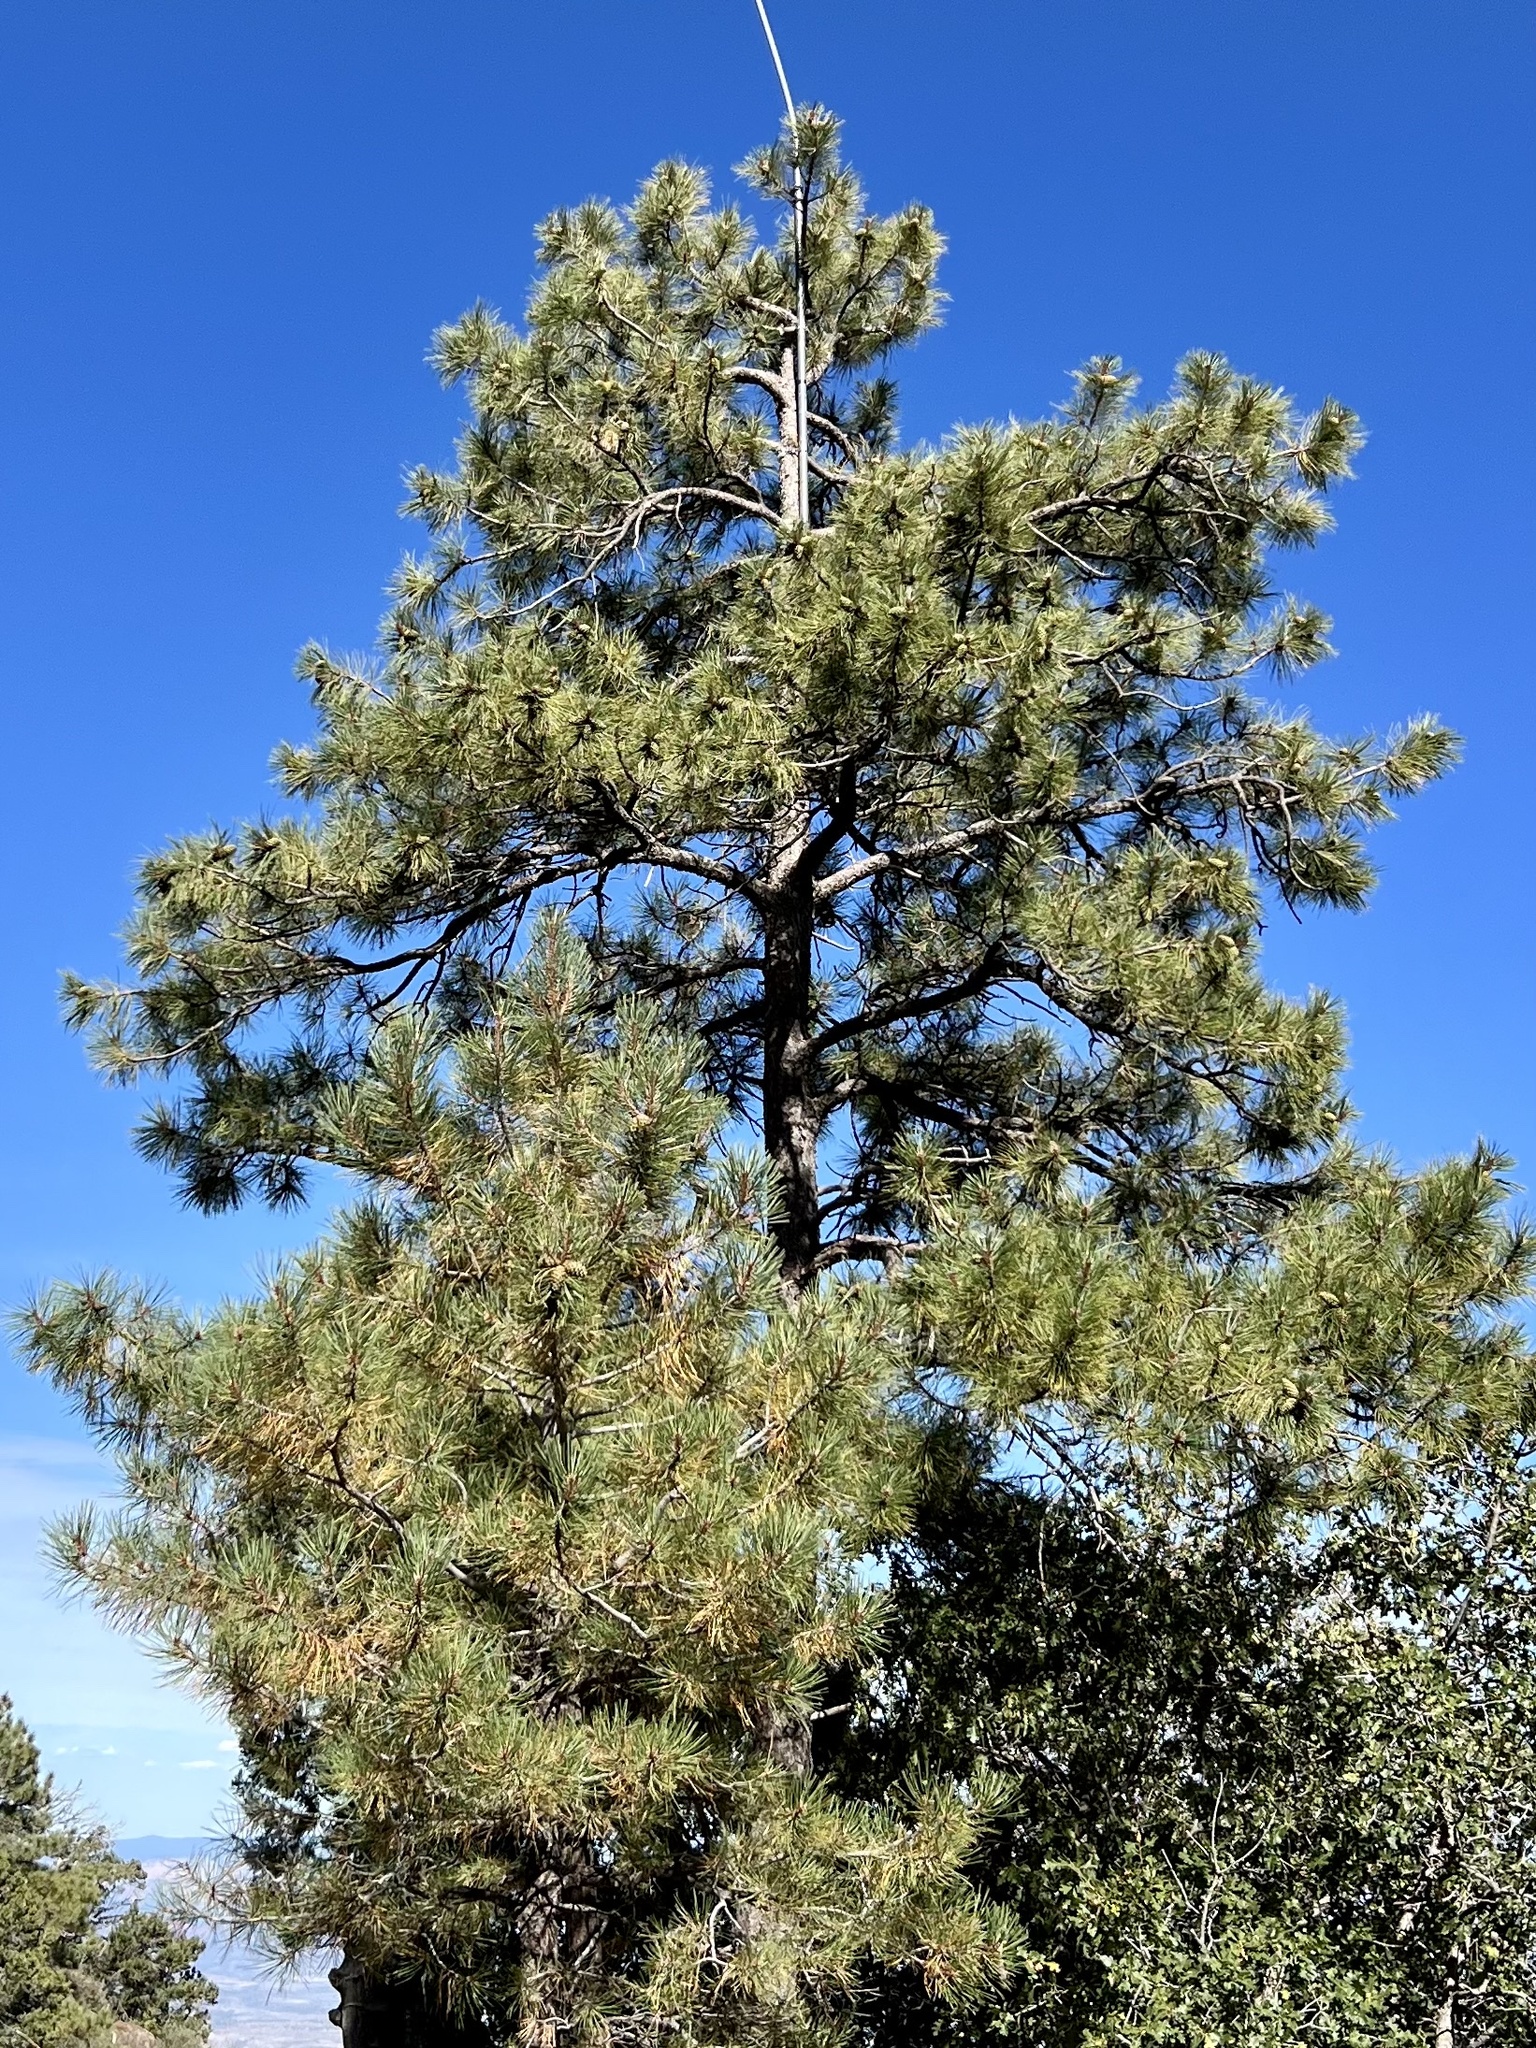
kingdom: Plantae
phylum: Tracheophyta
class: Pinopsida
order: Pinales
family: Pinaceae
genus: Pinus
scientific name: Pinus ponderosa
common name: Western yellow-pine
